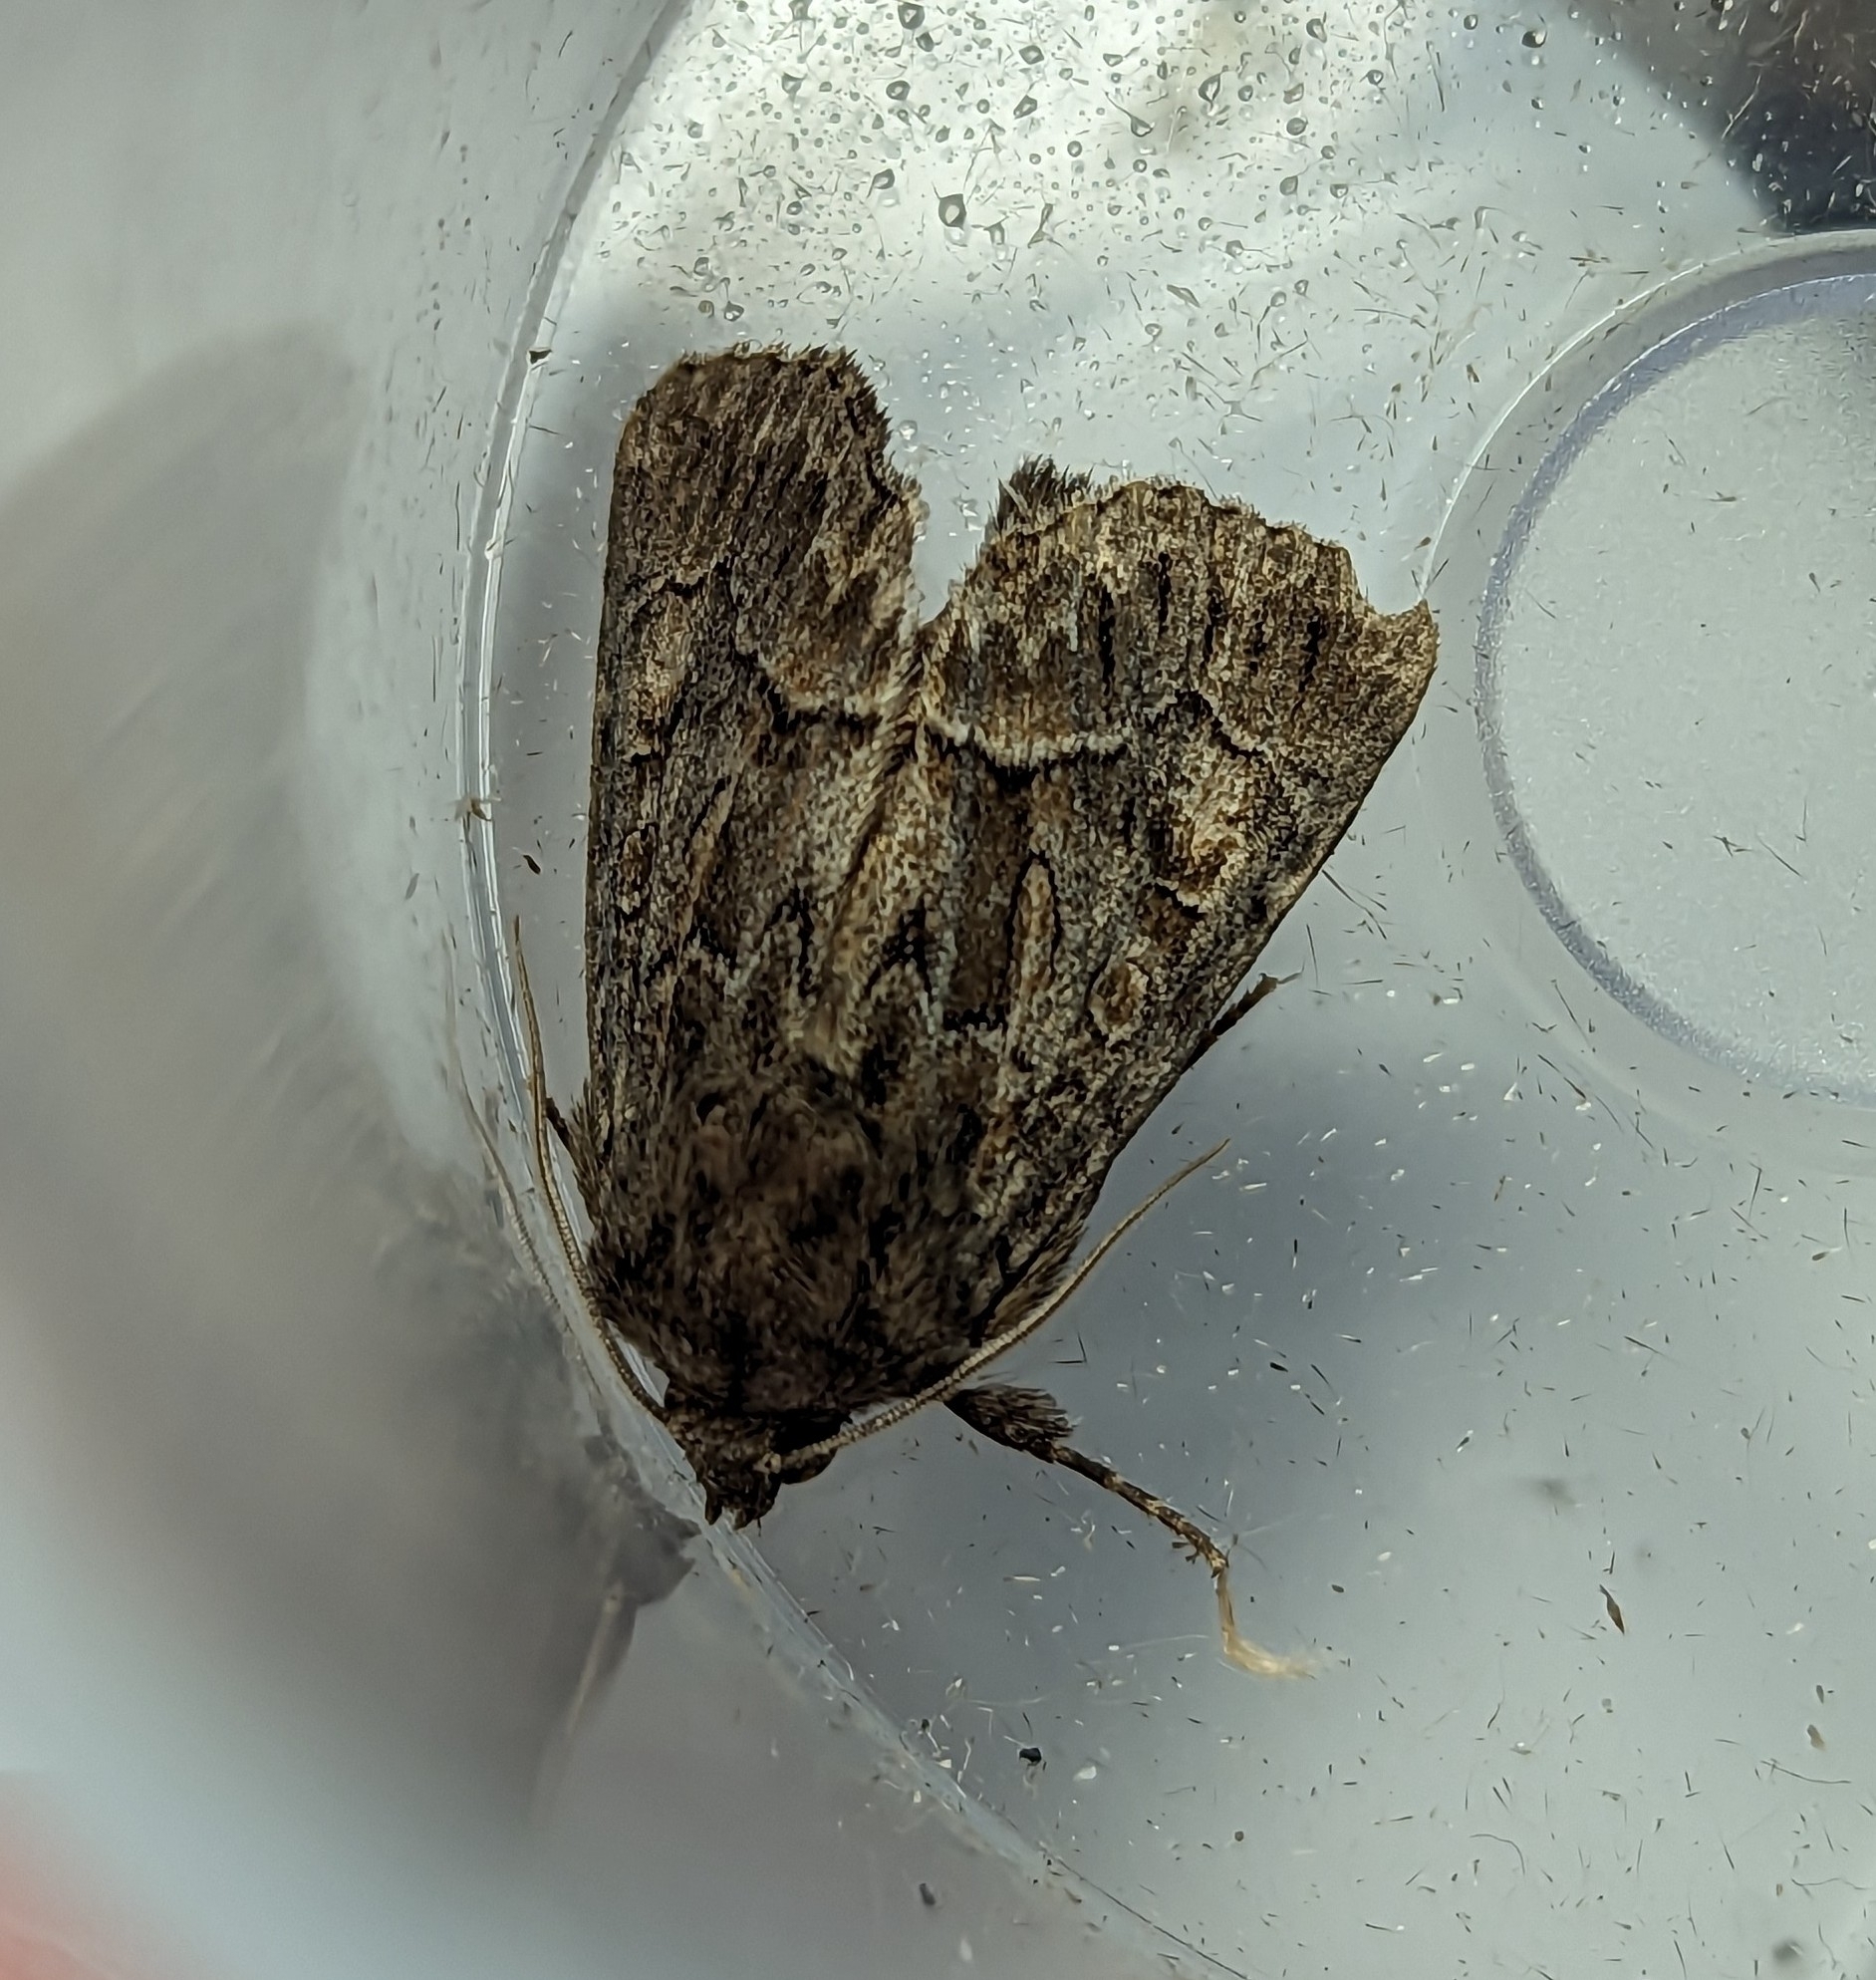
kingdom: Animalia
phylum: Arthropoda
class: Insecta
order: Lepidoptera
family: Noctuidae
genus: Thalpophila
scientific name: Thalpophila matura
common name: Straw underwing
